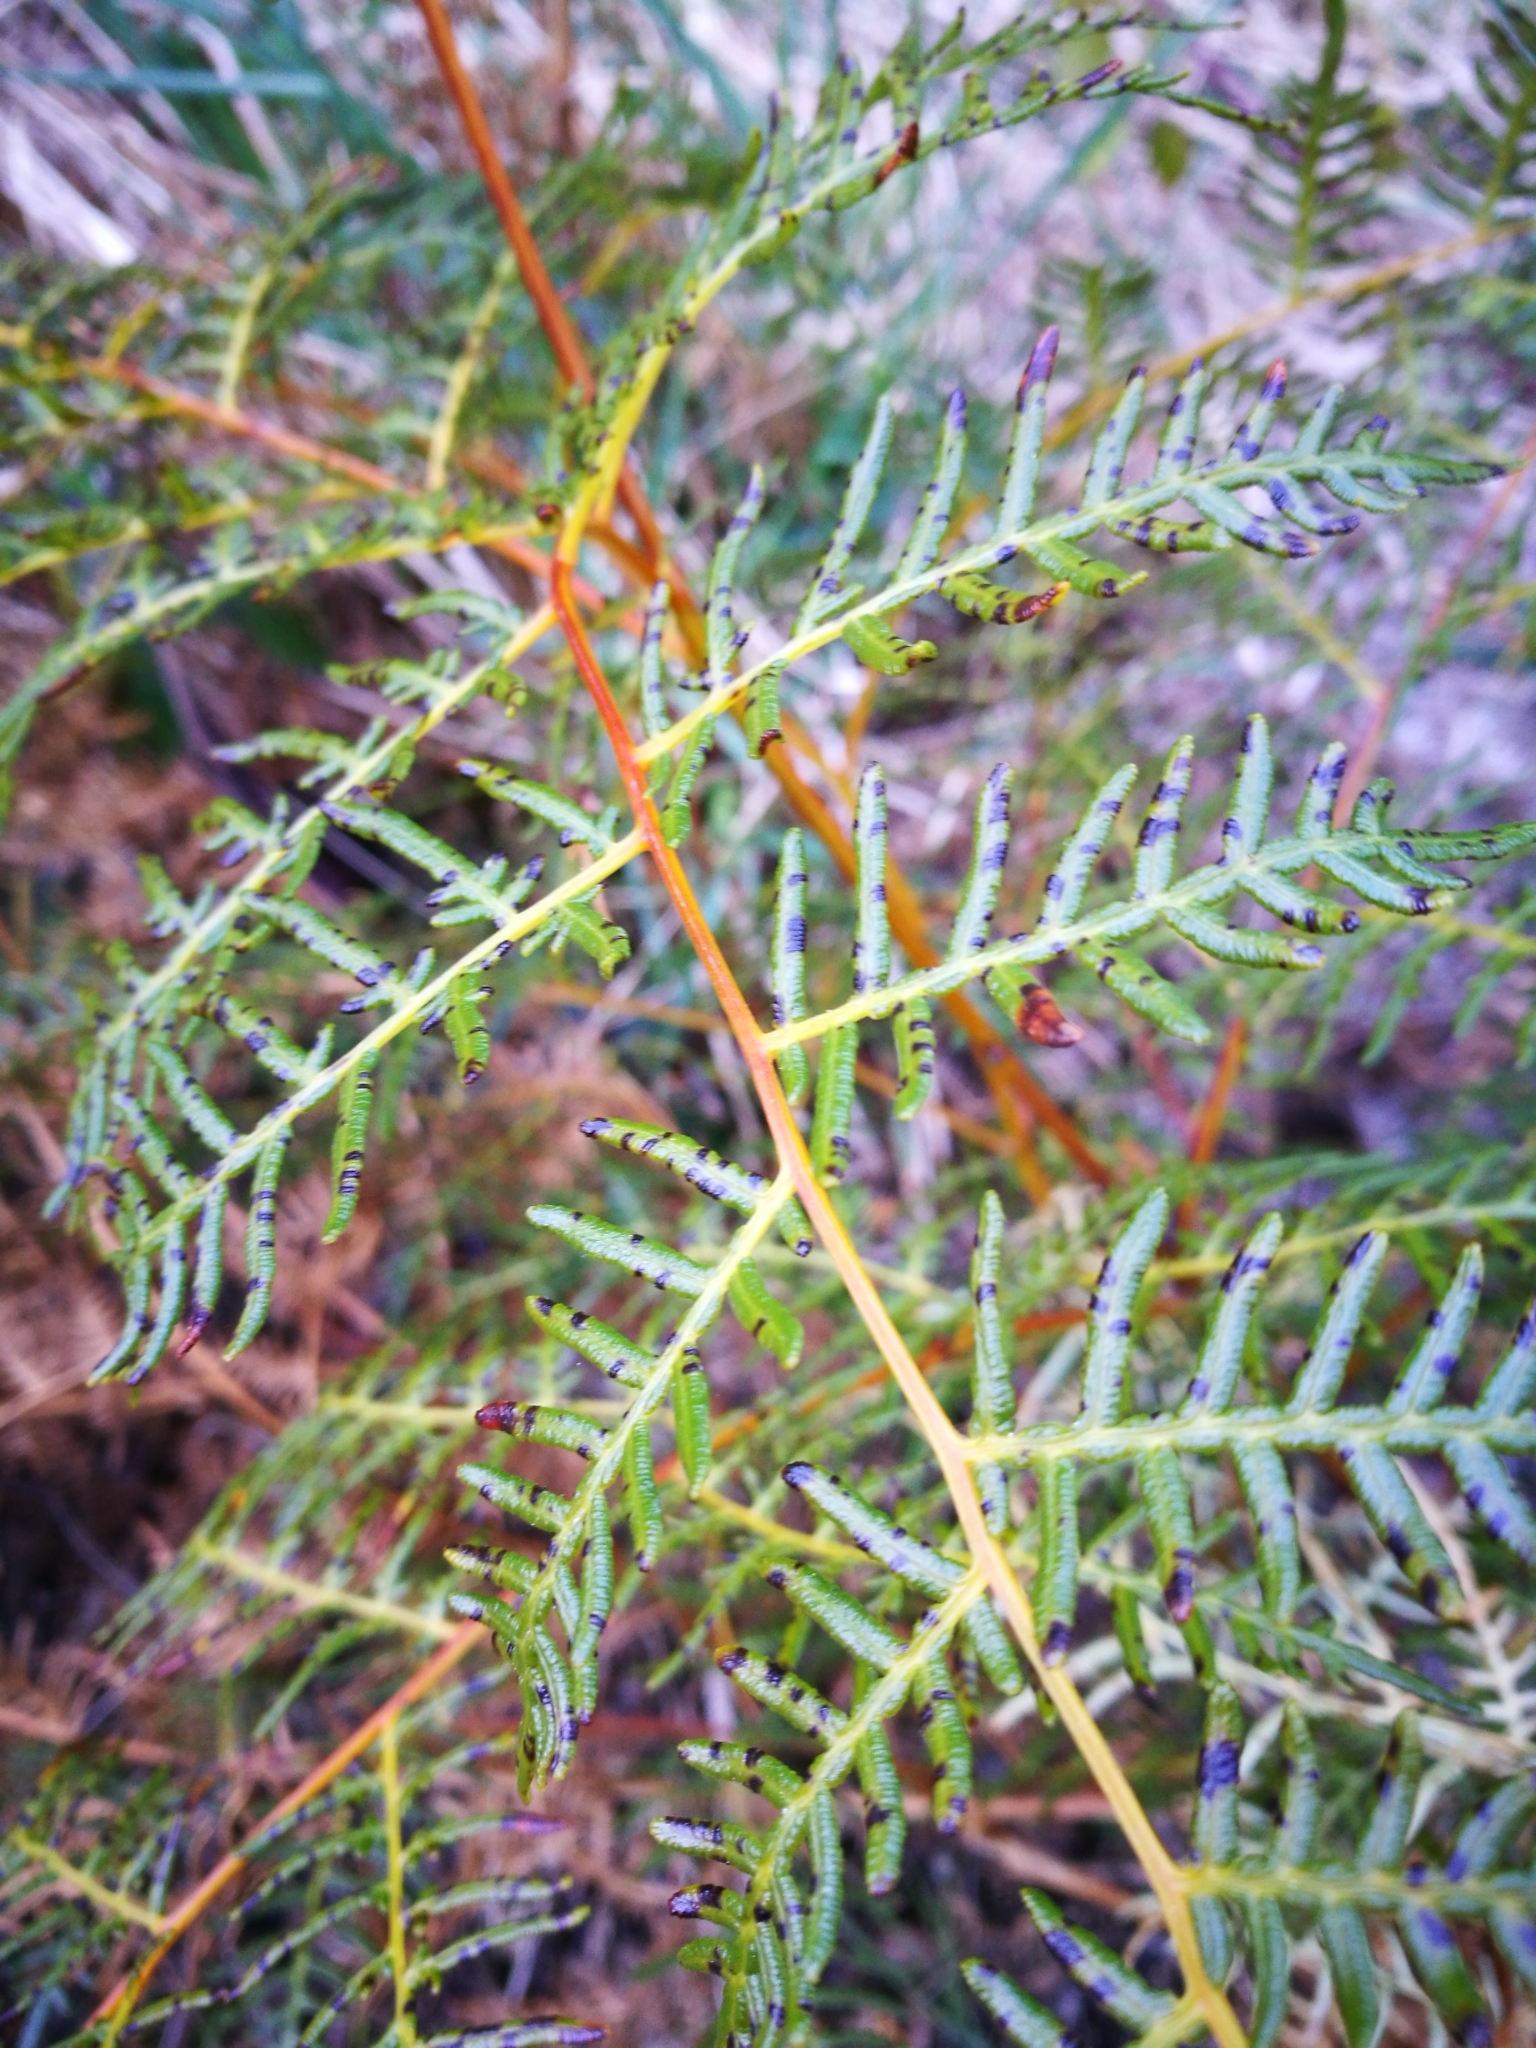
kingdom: Plantae
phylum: Tracheophyta
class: Polypodiopsida
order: Polypodiales
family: Dennstaedtiaceae
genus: Pteridium
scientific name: Pteridium esculentum
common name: Bracken fern
